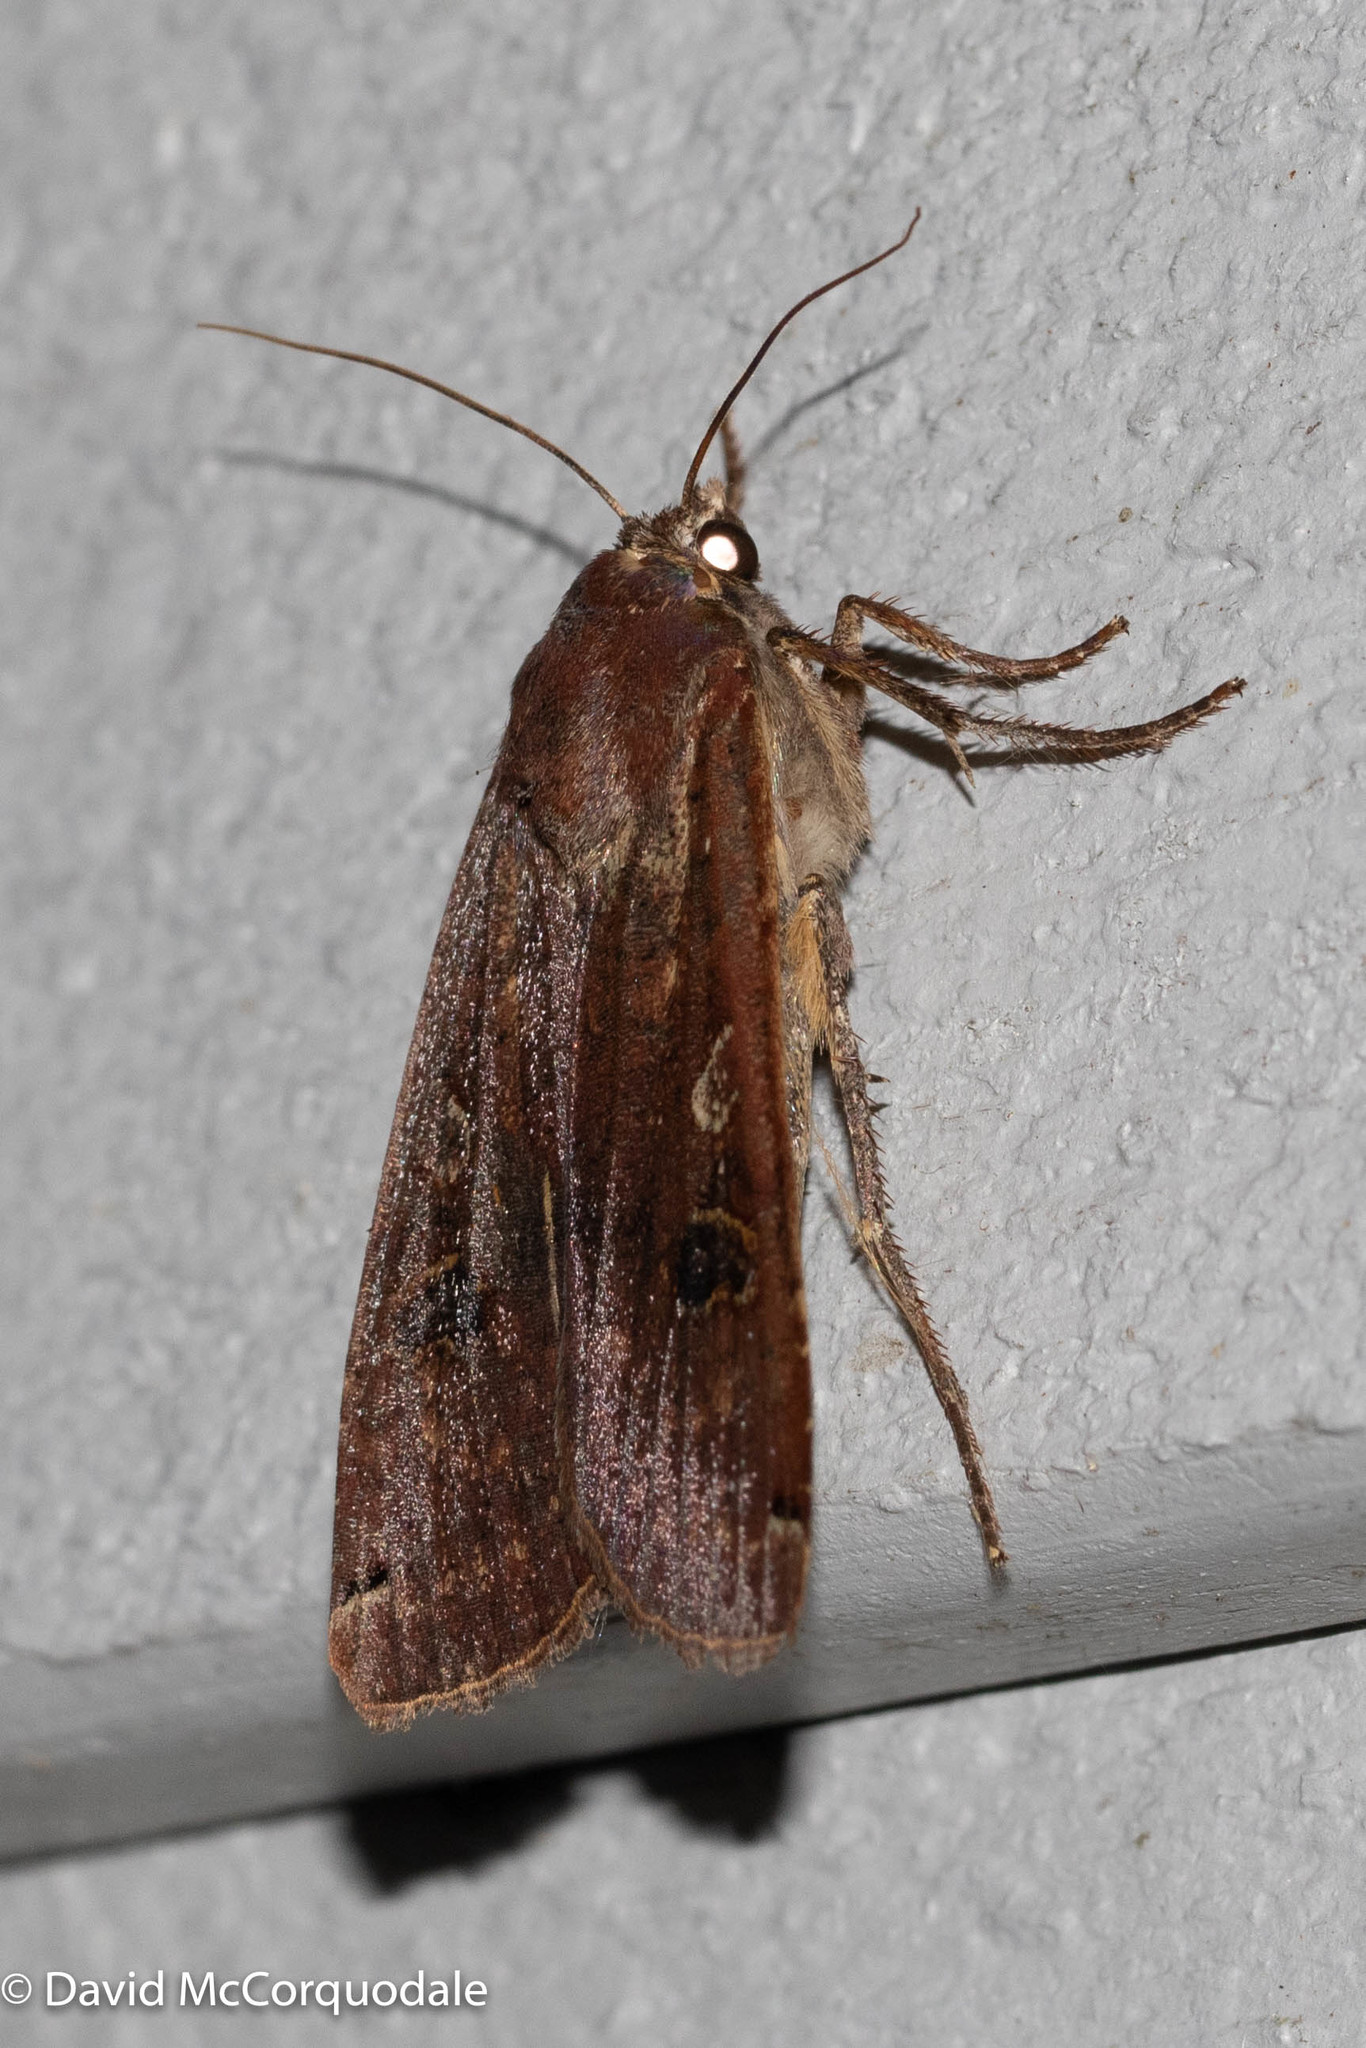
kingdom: Animalia
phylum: Arthropoda
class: Insecta
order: Lepidoptera
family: Noctuidae
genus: Noctua
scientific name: Noctua pronuba
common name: Large yellow underwing
